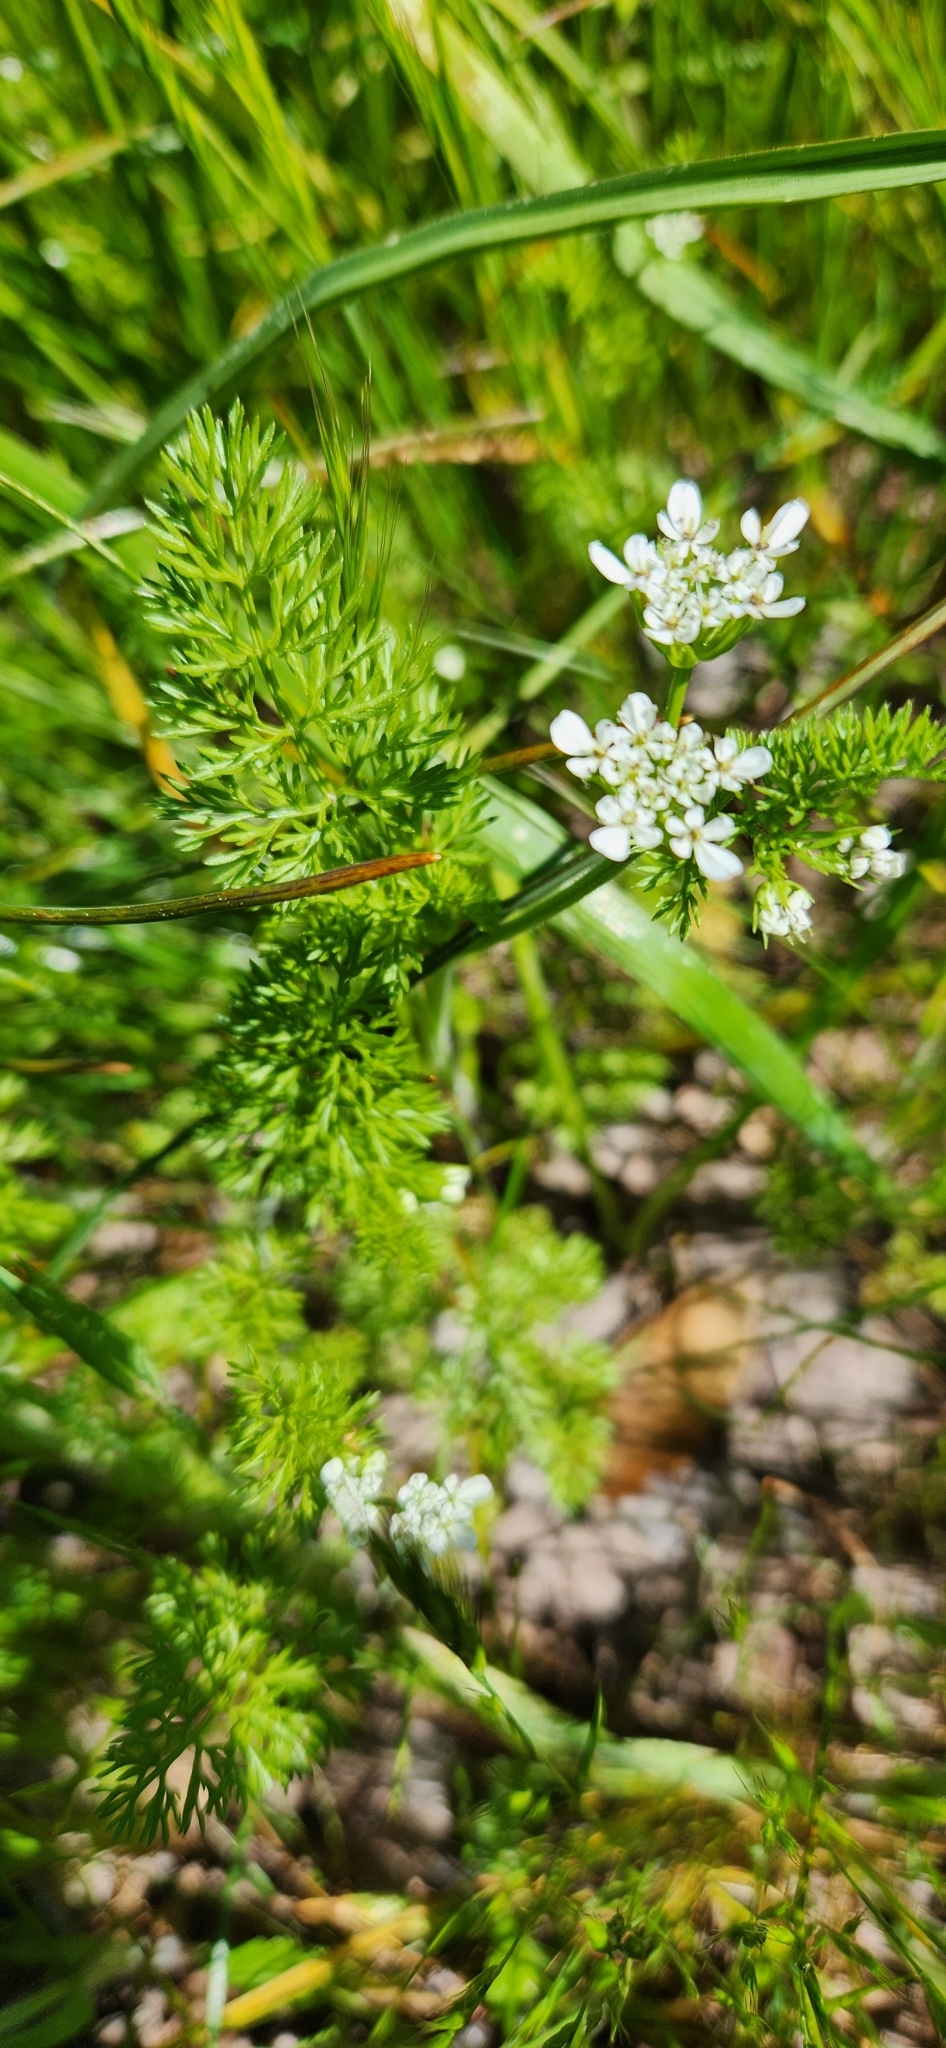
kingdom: Plantae
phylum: Tracheophyta
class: Magnoliopsida
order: Apiales
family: Apiaceae
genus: Scandix
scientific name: Scandix pecten-veneris
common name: Shepherd's-needle
